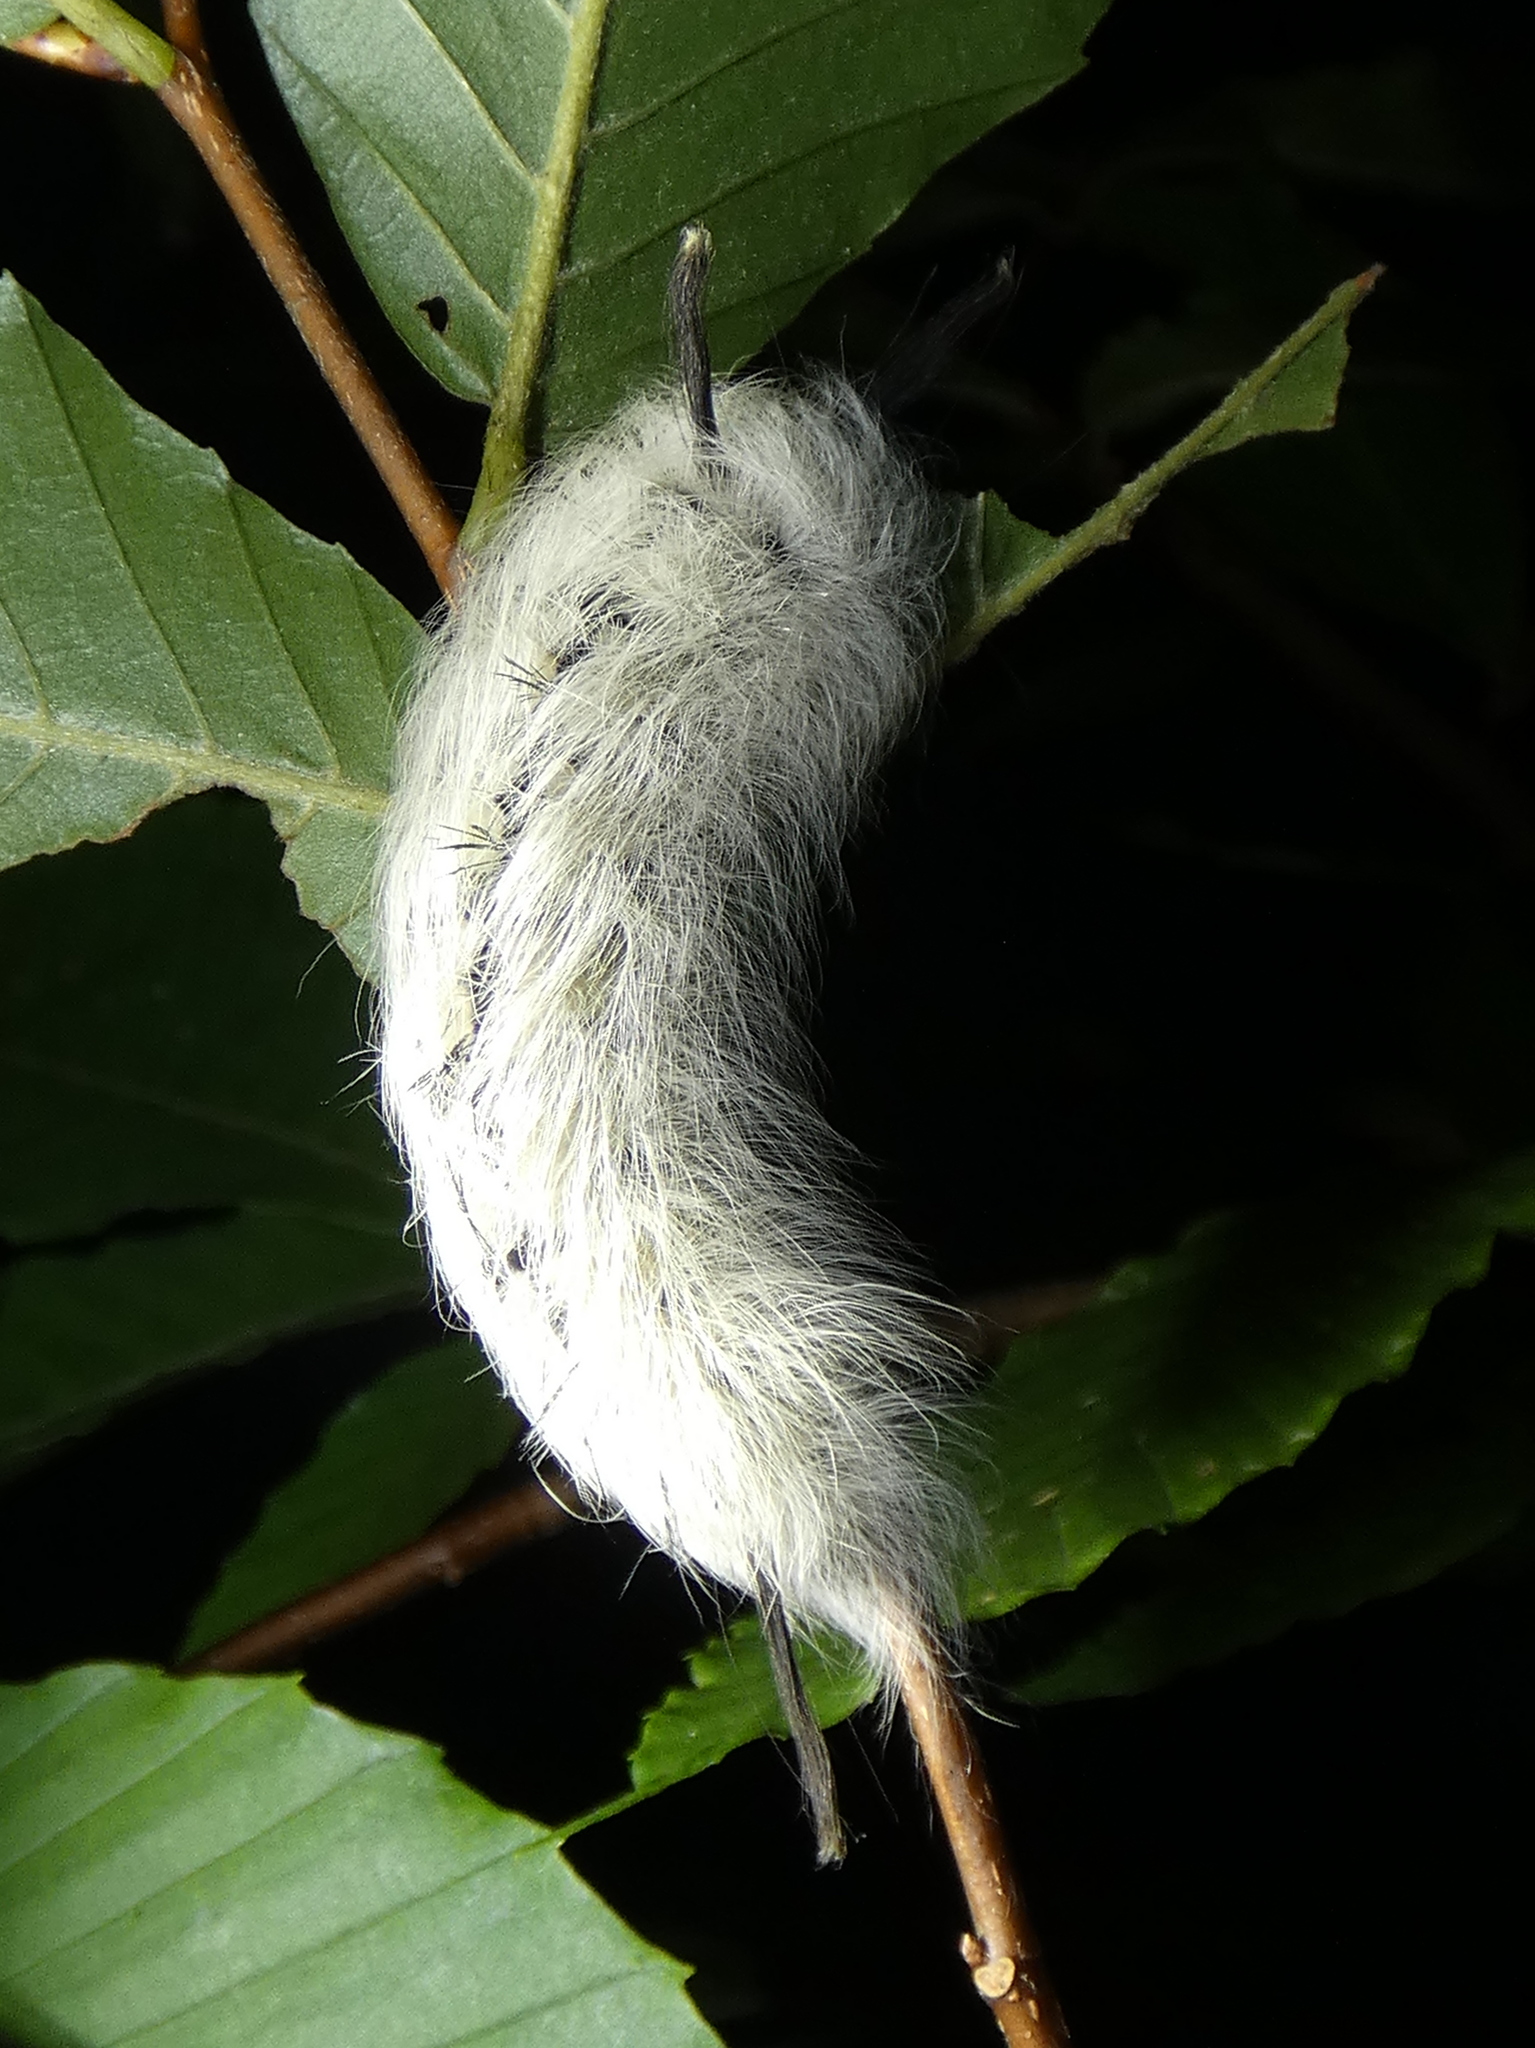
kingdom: Animalia
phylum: Arthropoda
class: Insecta
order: Lepidoptera
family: Apatelodidae
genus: Hygrochroa
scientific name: Hygrochroa Apatelodes torrefacta
